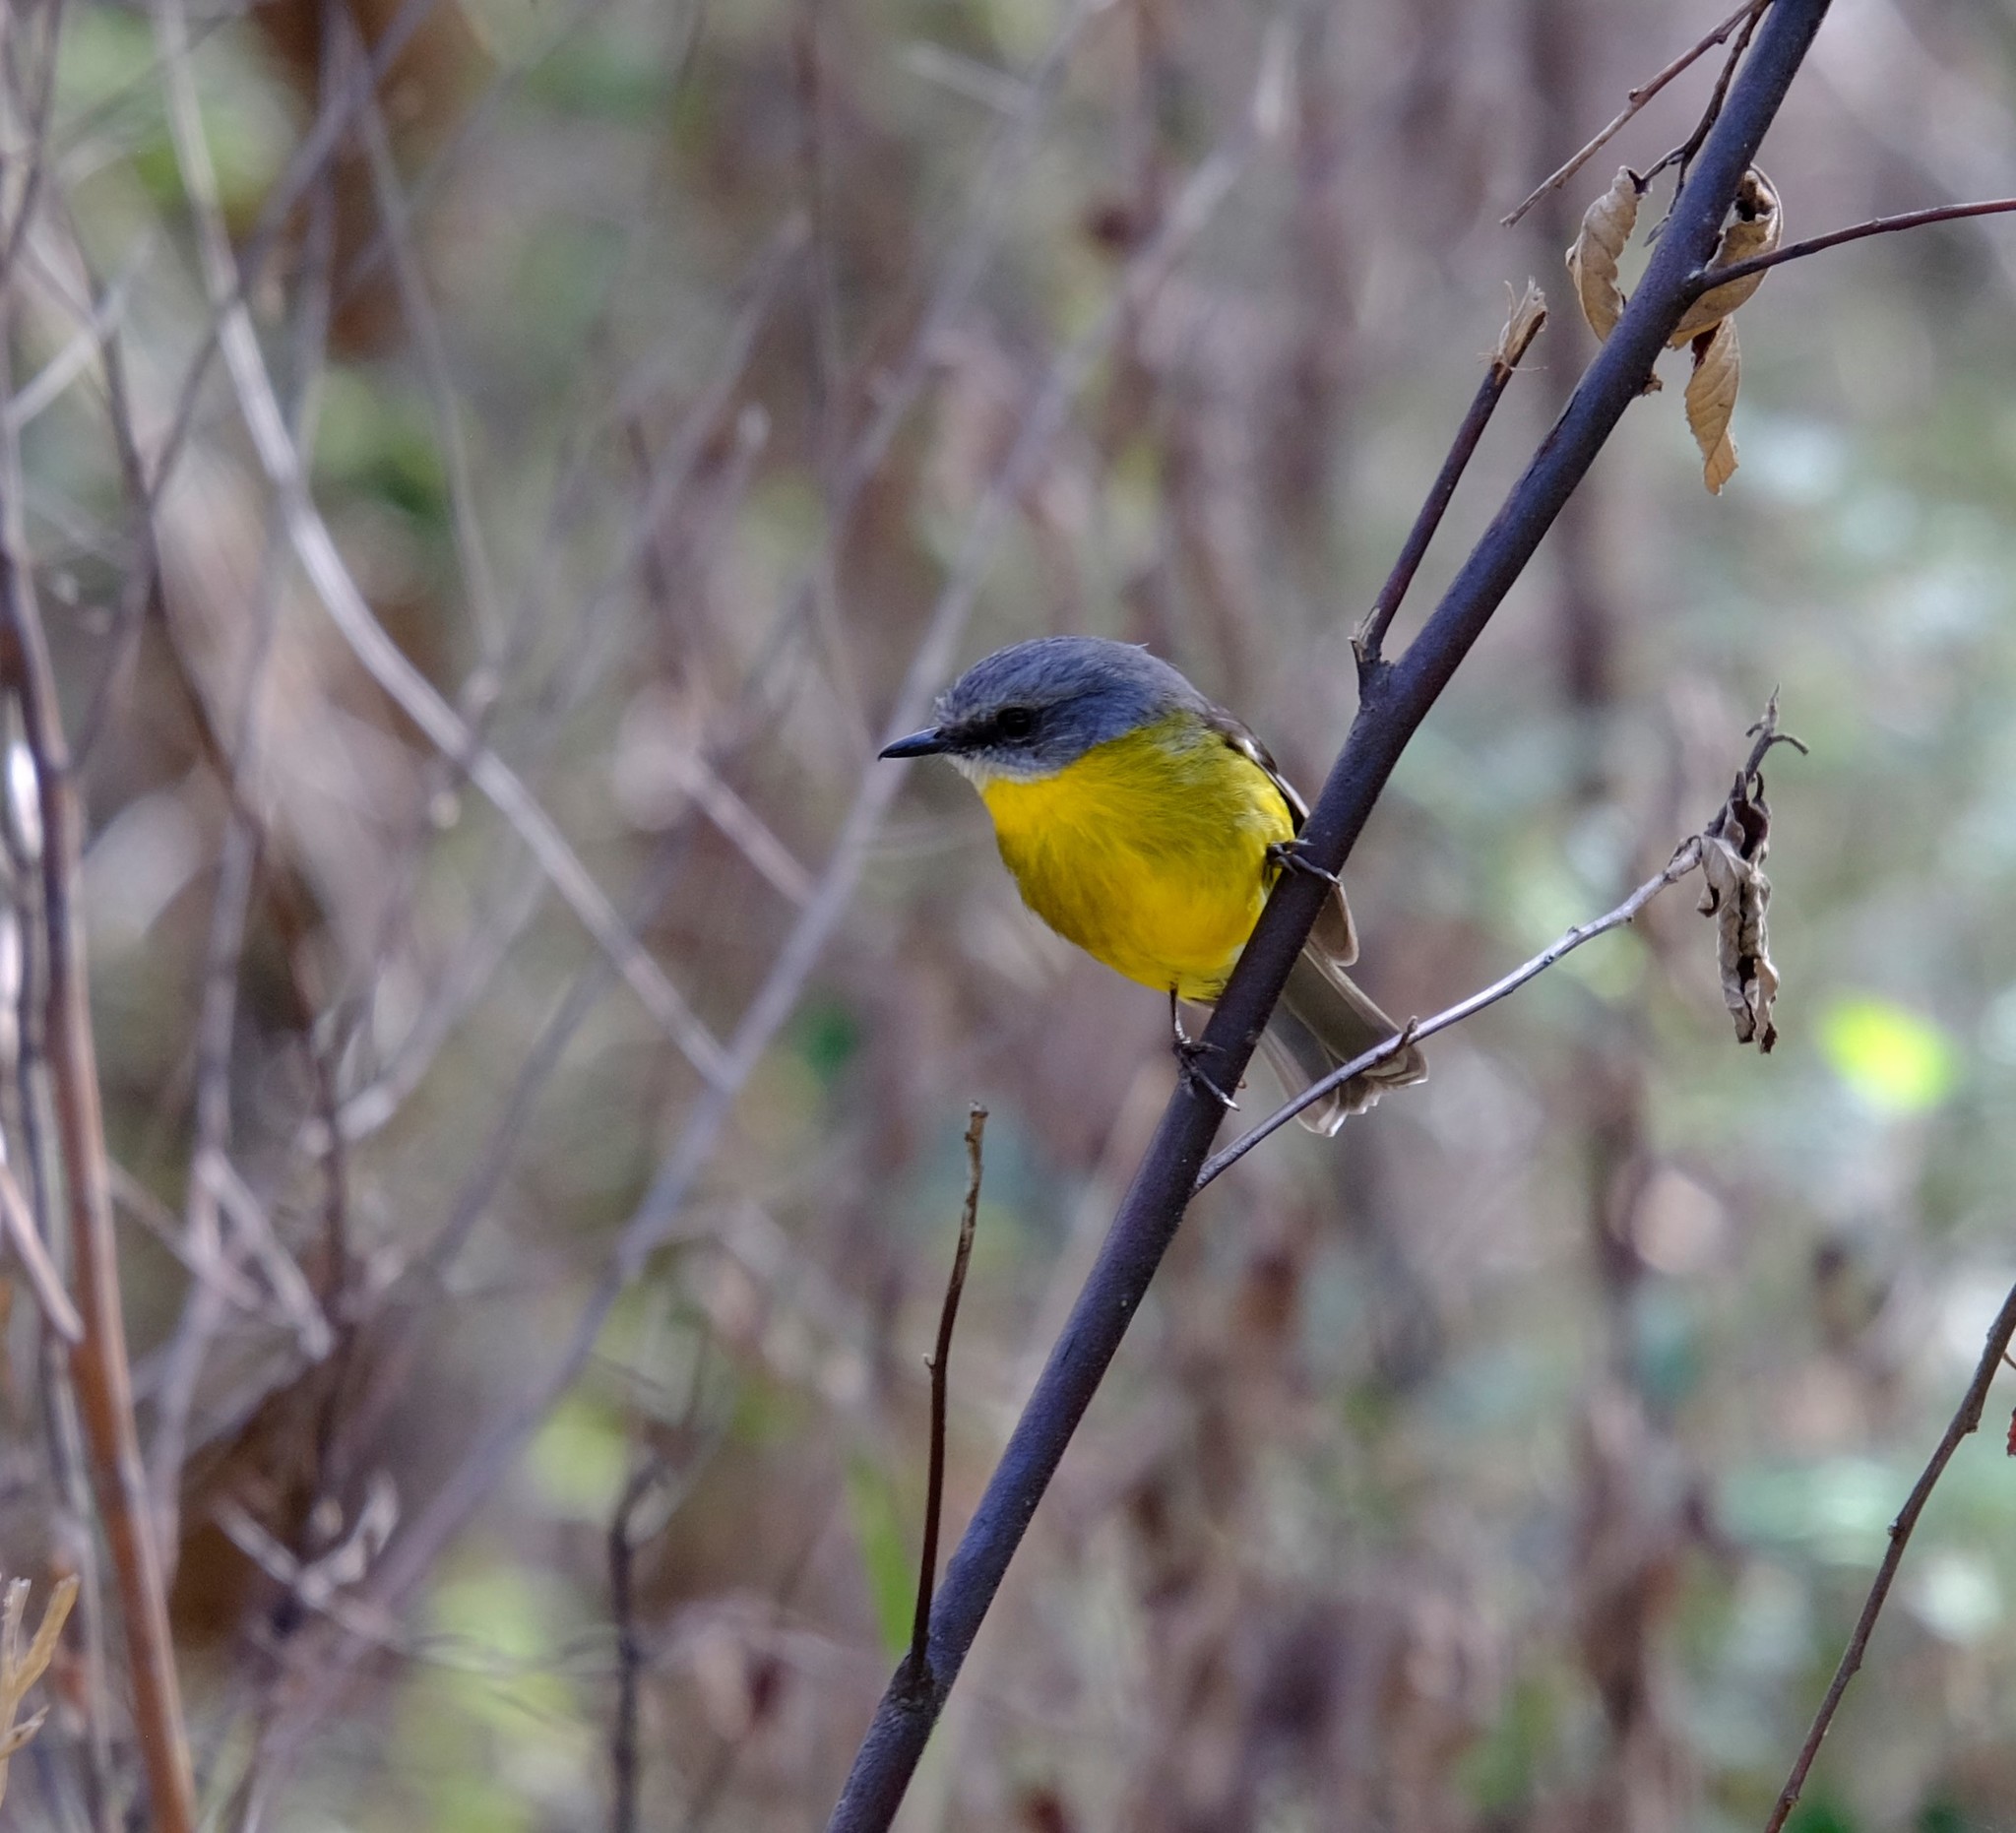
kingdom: Animalia
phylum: Chordata
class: Aves
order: Passeriformes
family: Petroicidae
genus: Eopsaltria
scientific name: Eopsaltria australis
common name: Eastern yellow robin
